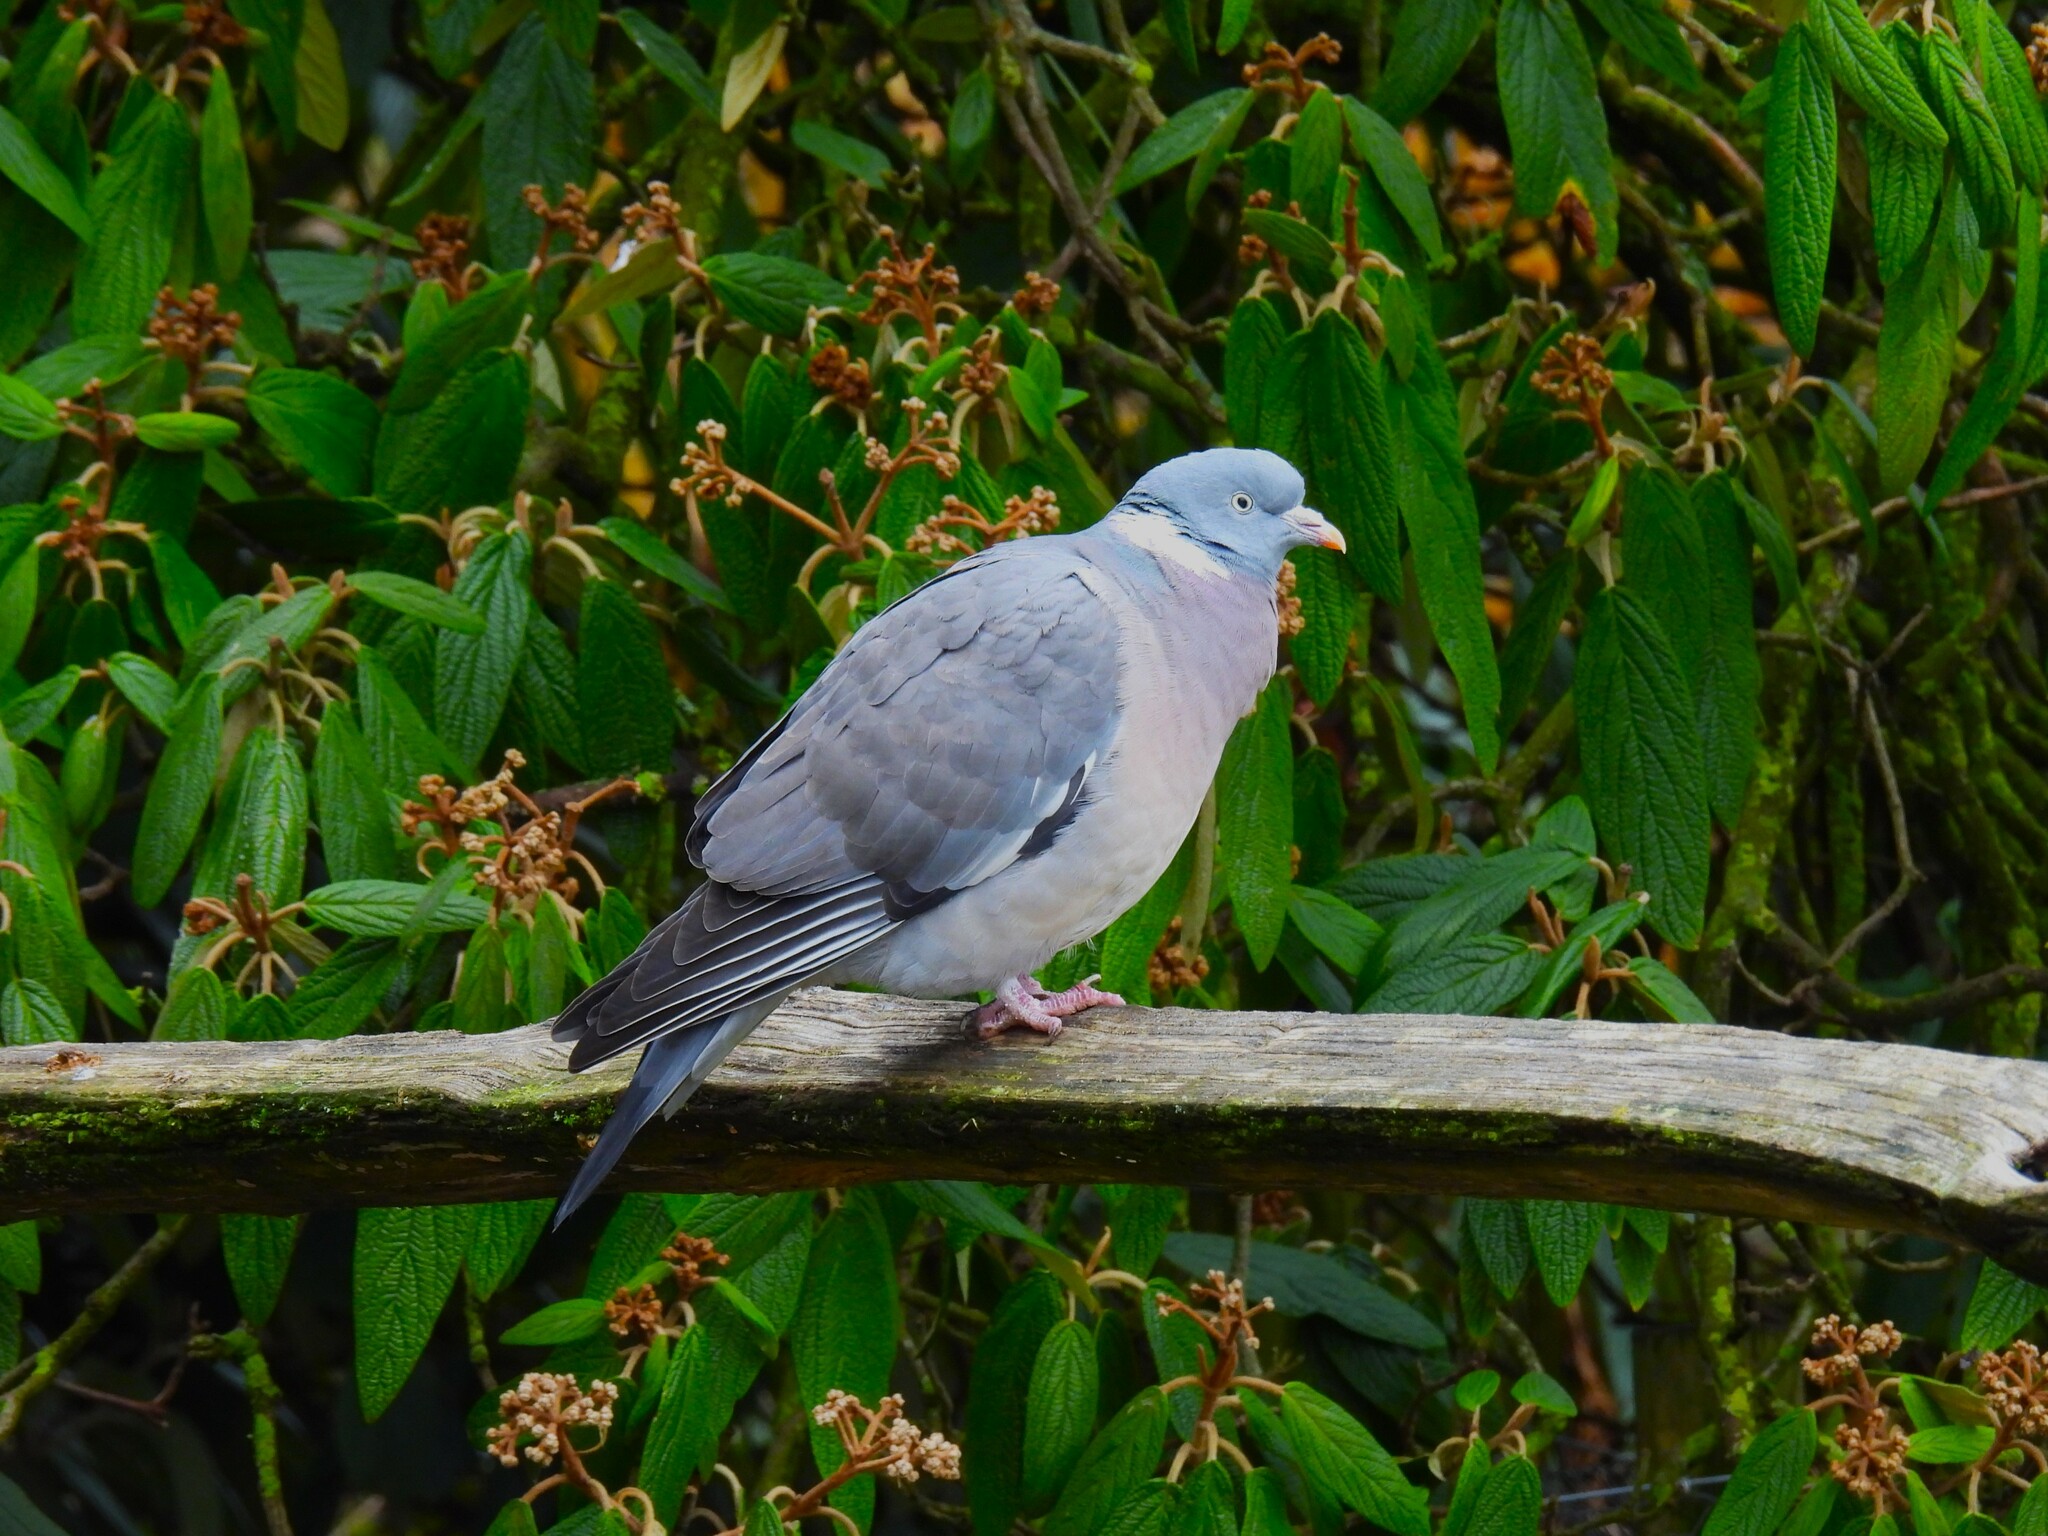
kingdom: Animalia
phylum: Chordata
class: Aves
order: Columbiformes
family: Columbidae
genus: Columba
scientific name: Columba palumbus
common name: Common wood pigeon
